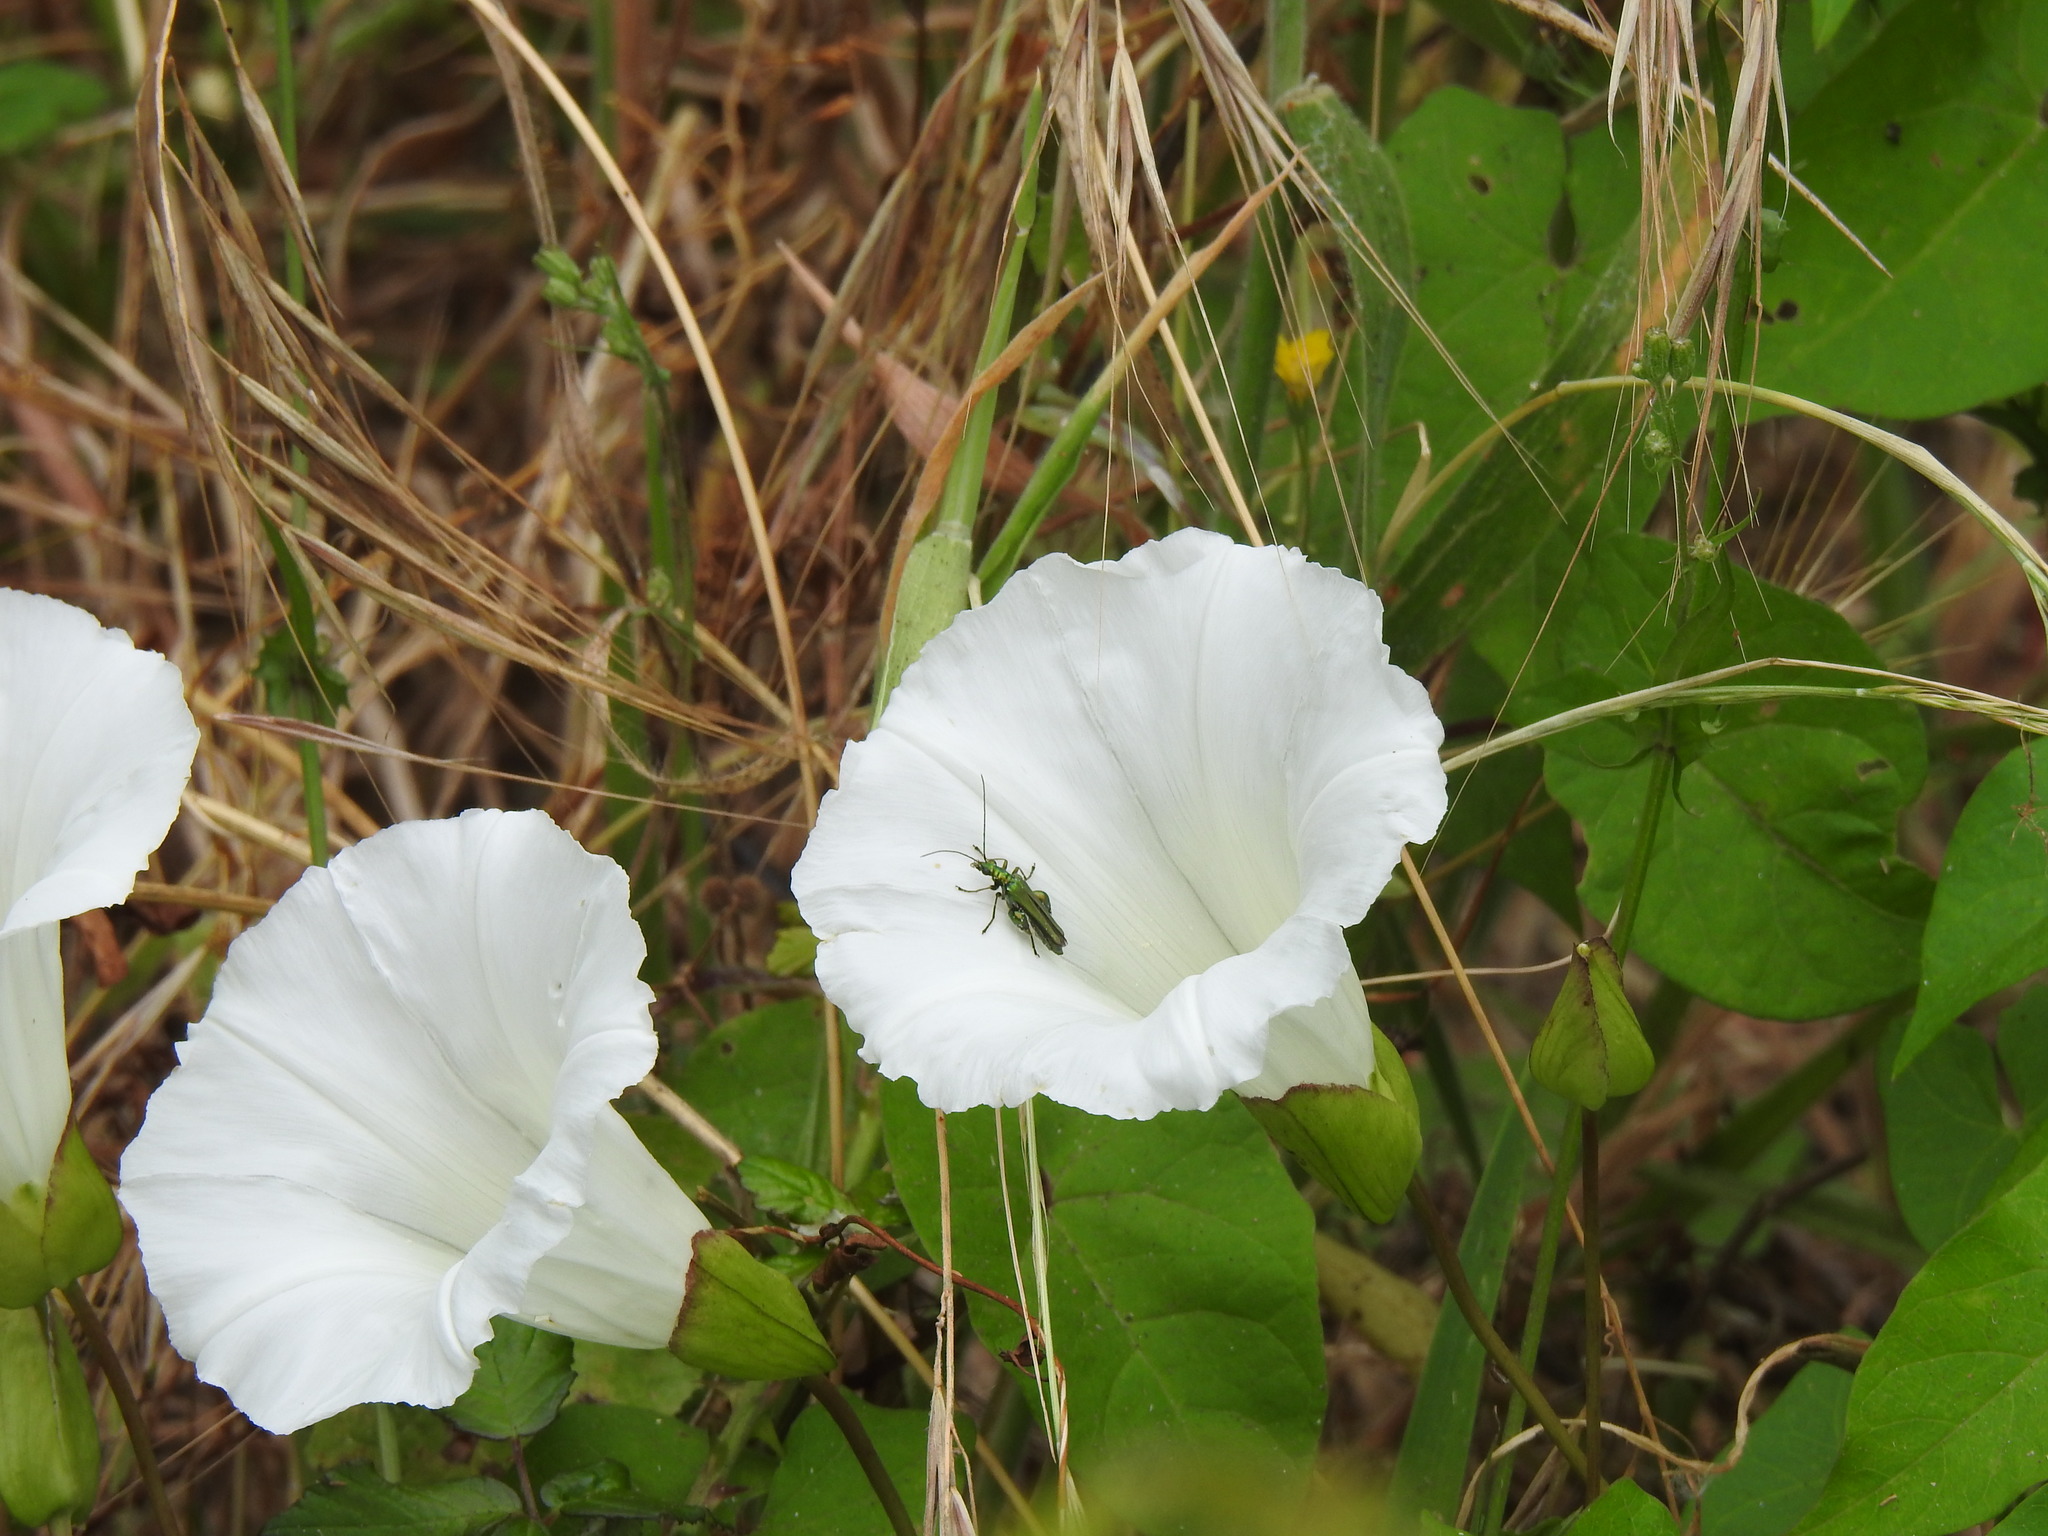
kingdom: Animalia
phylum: Arthropoda
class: Insecta
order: Coleoptera
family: Oedemeridae
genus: Oedemera
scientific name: Oedemera nobilis
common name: Swollen-thighed beetle
